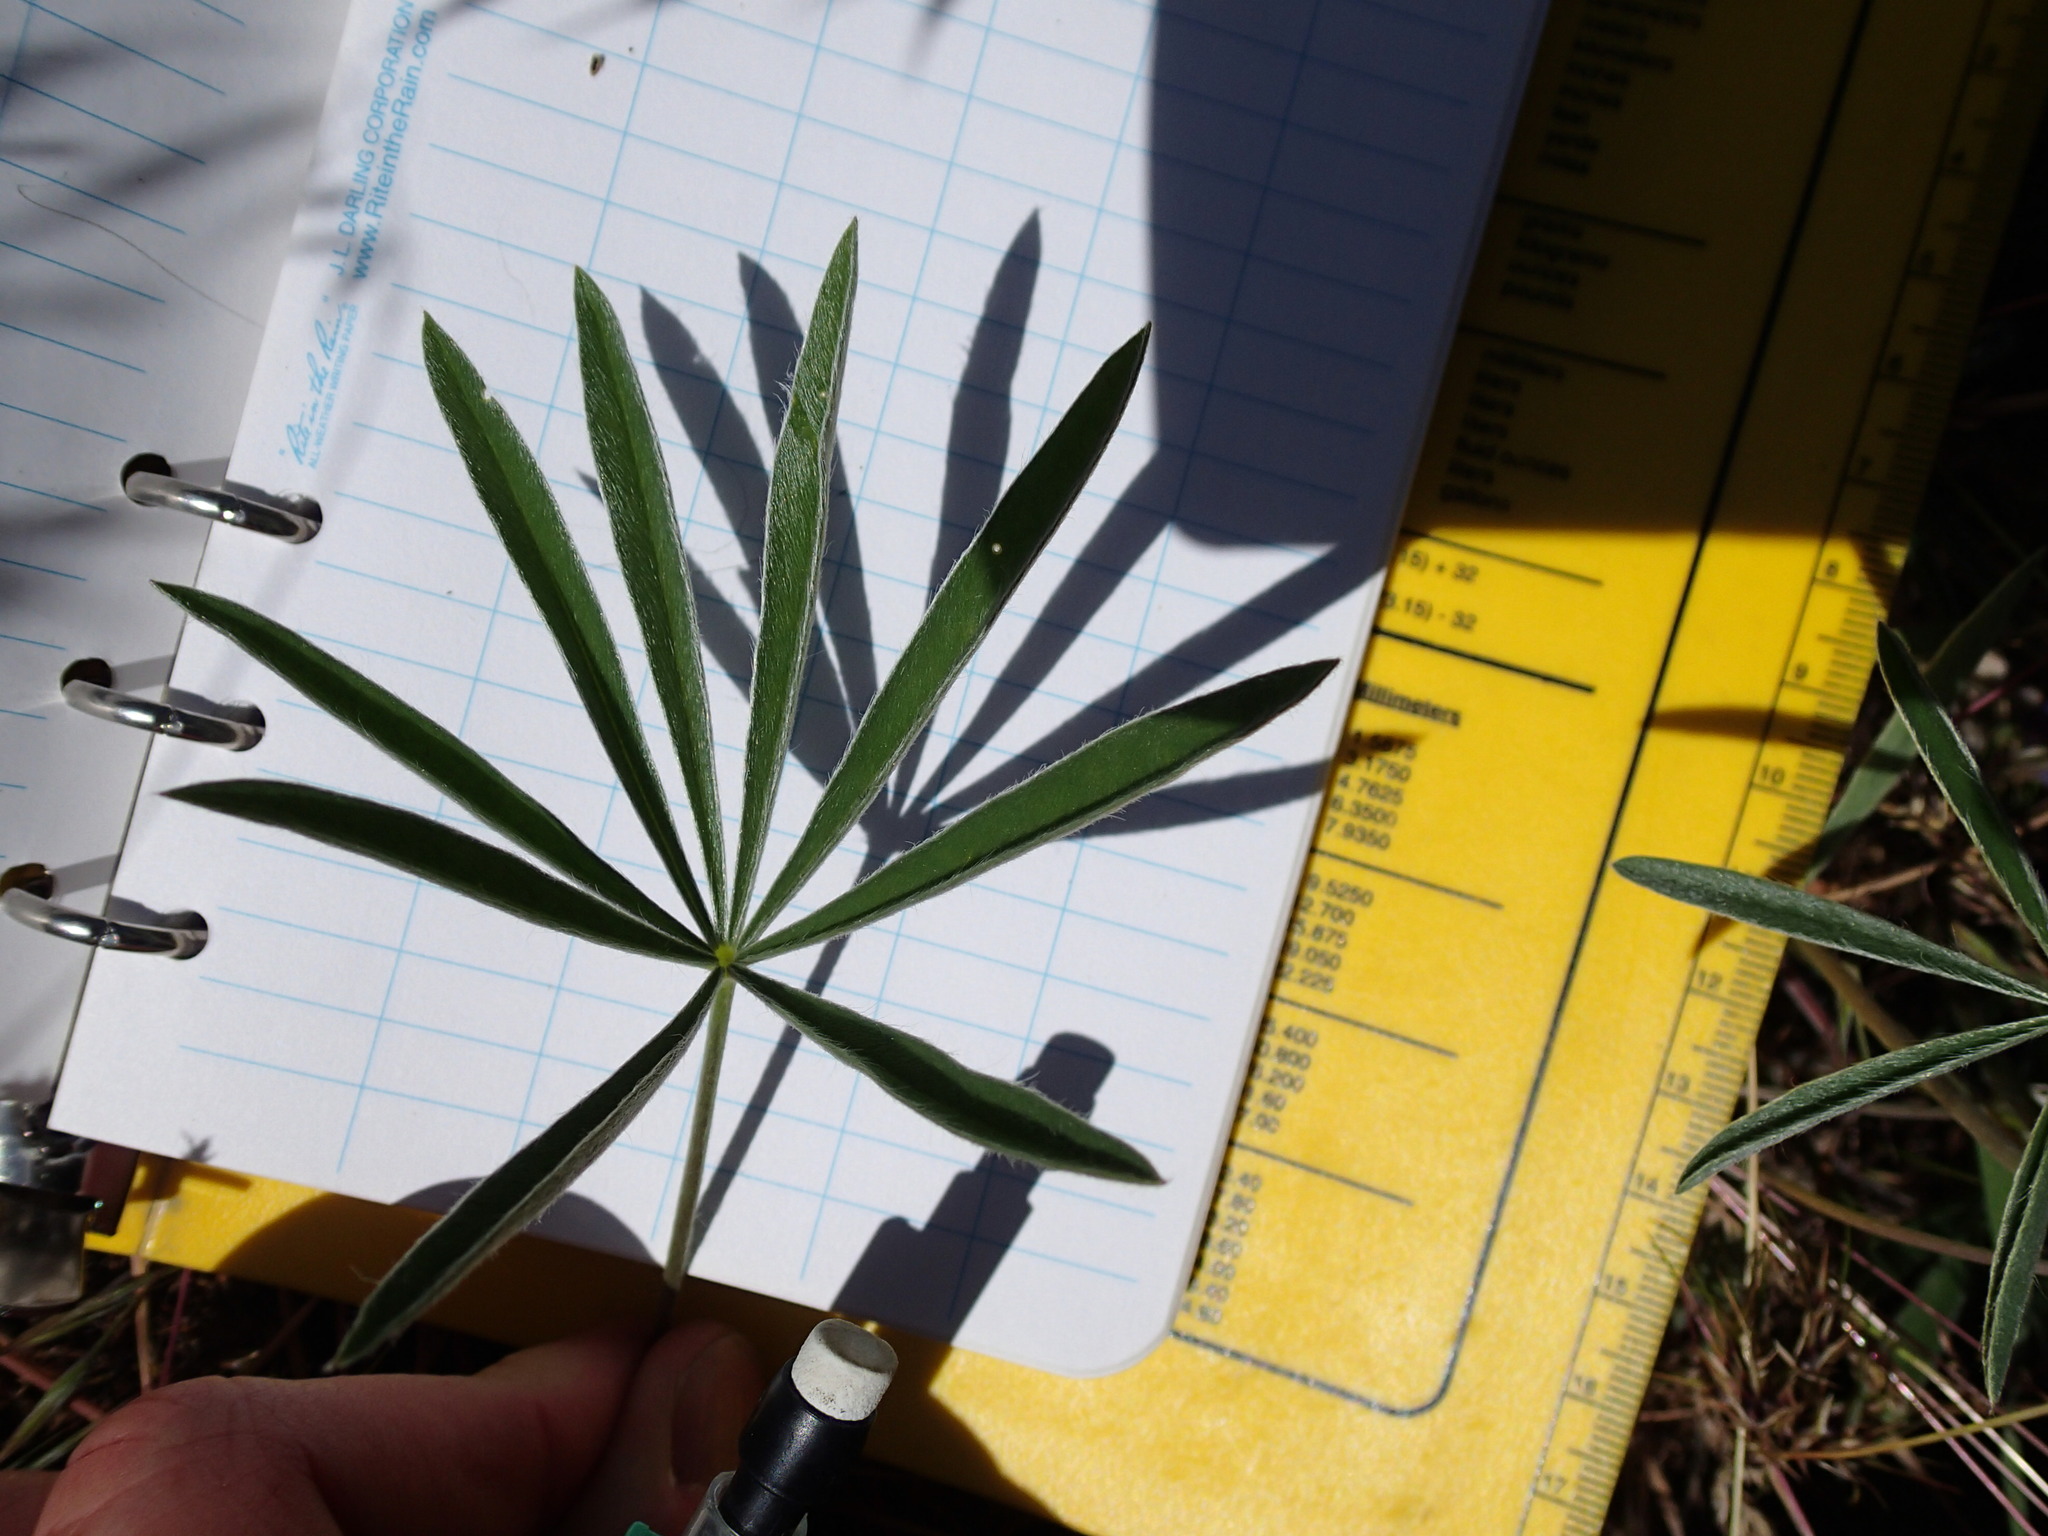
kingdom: Plantae
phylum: Tracheophyta
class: Magnoliopsida
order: Fabales
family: Fabaceae
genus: Lupinus
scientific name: Lupinus sericeus
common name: Silky lupine
